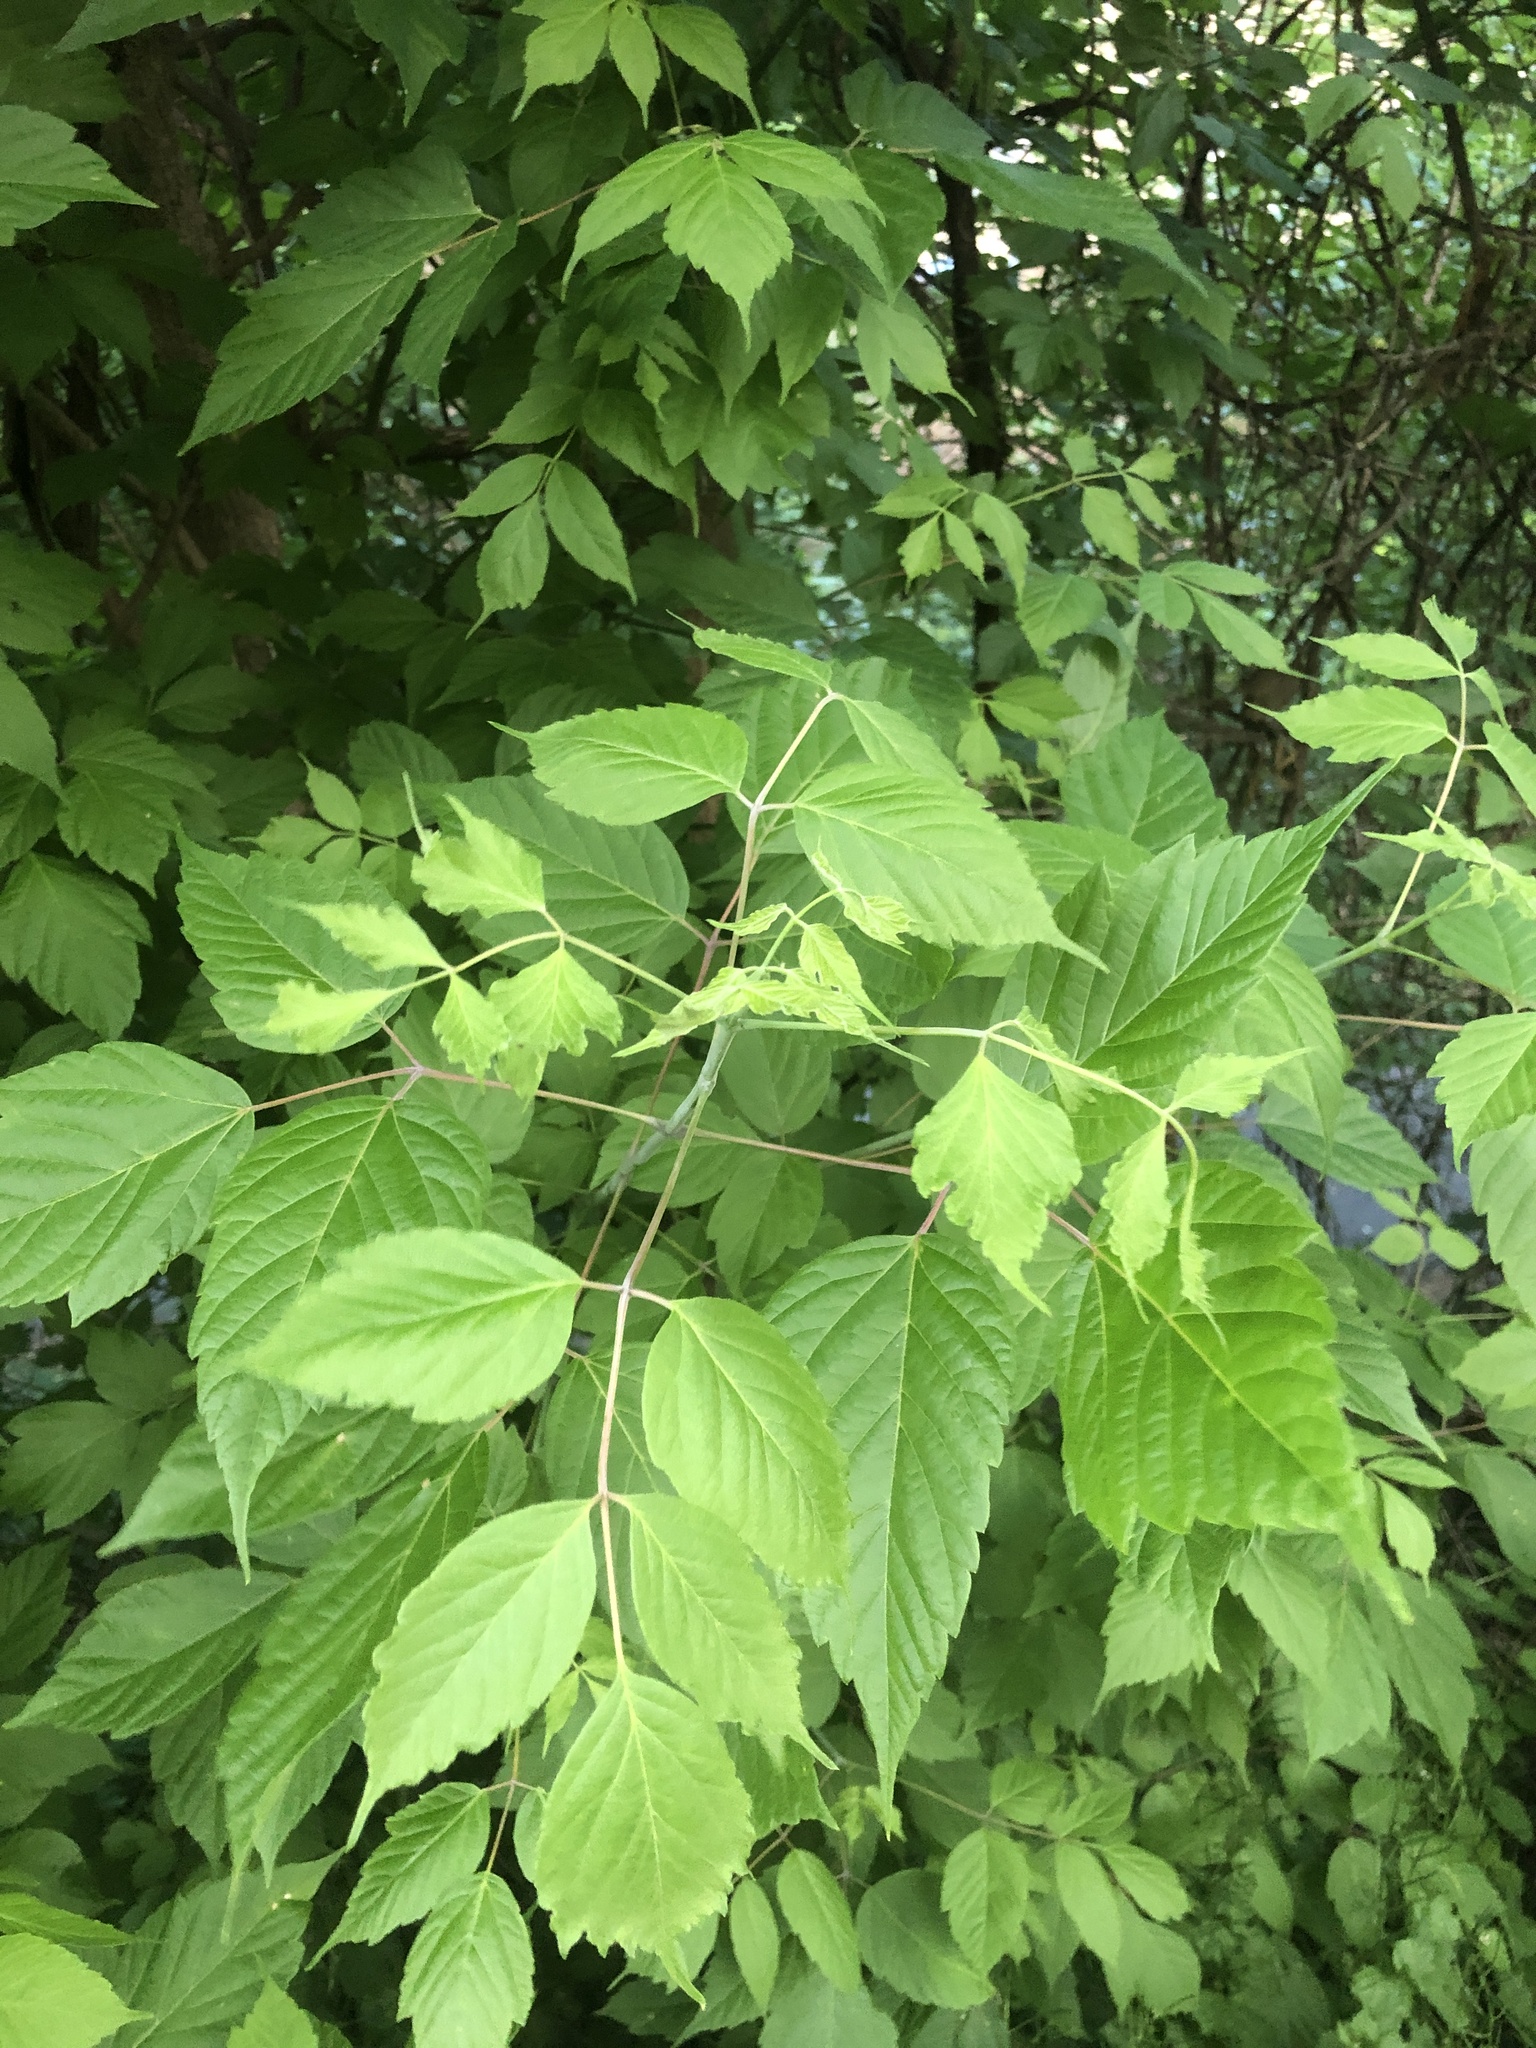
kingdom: Plantae
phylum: Tracheophyta
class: Magnoliopsida
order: Sapindales
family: Sapindaceae
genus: Acer
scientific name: Acer negundo
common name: Ashleaf maple
